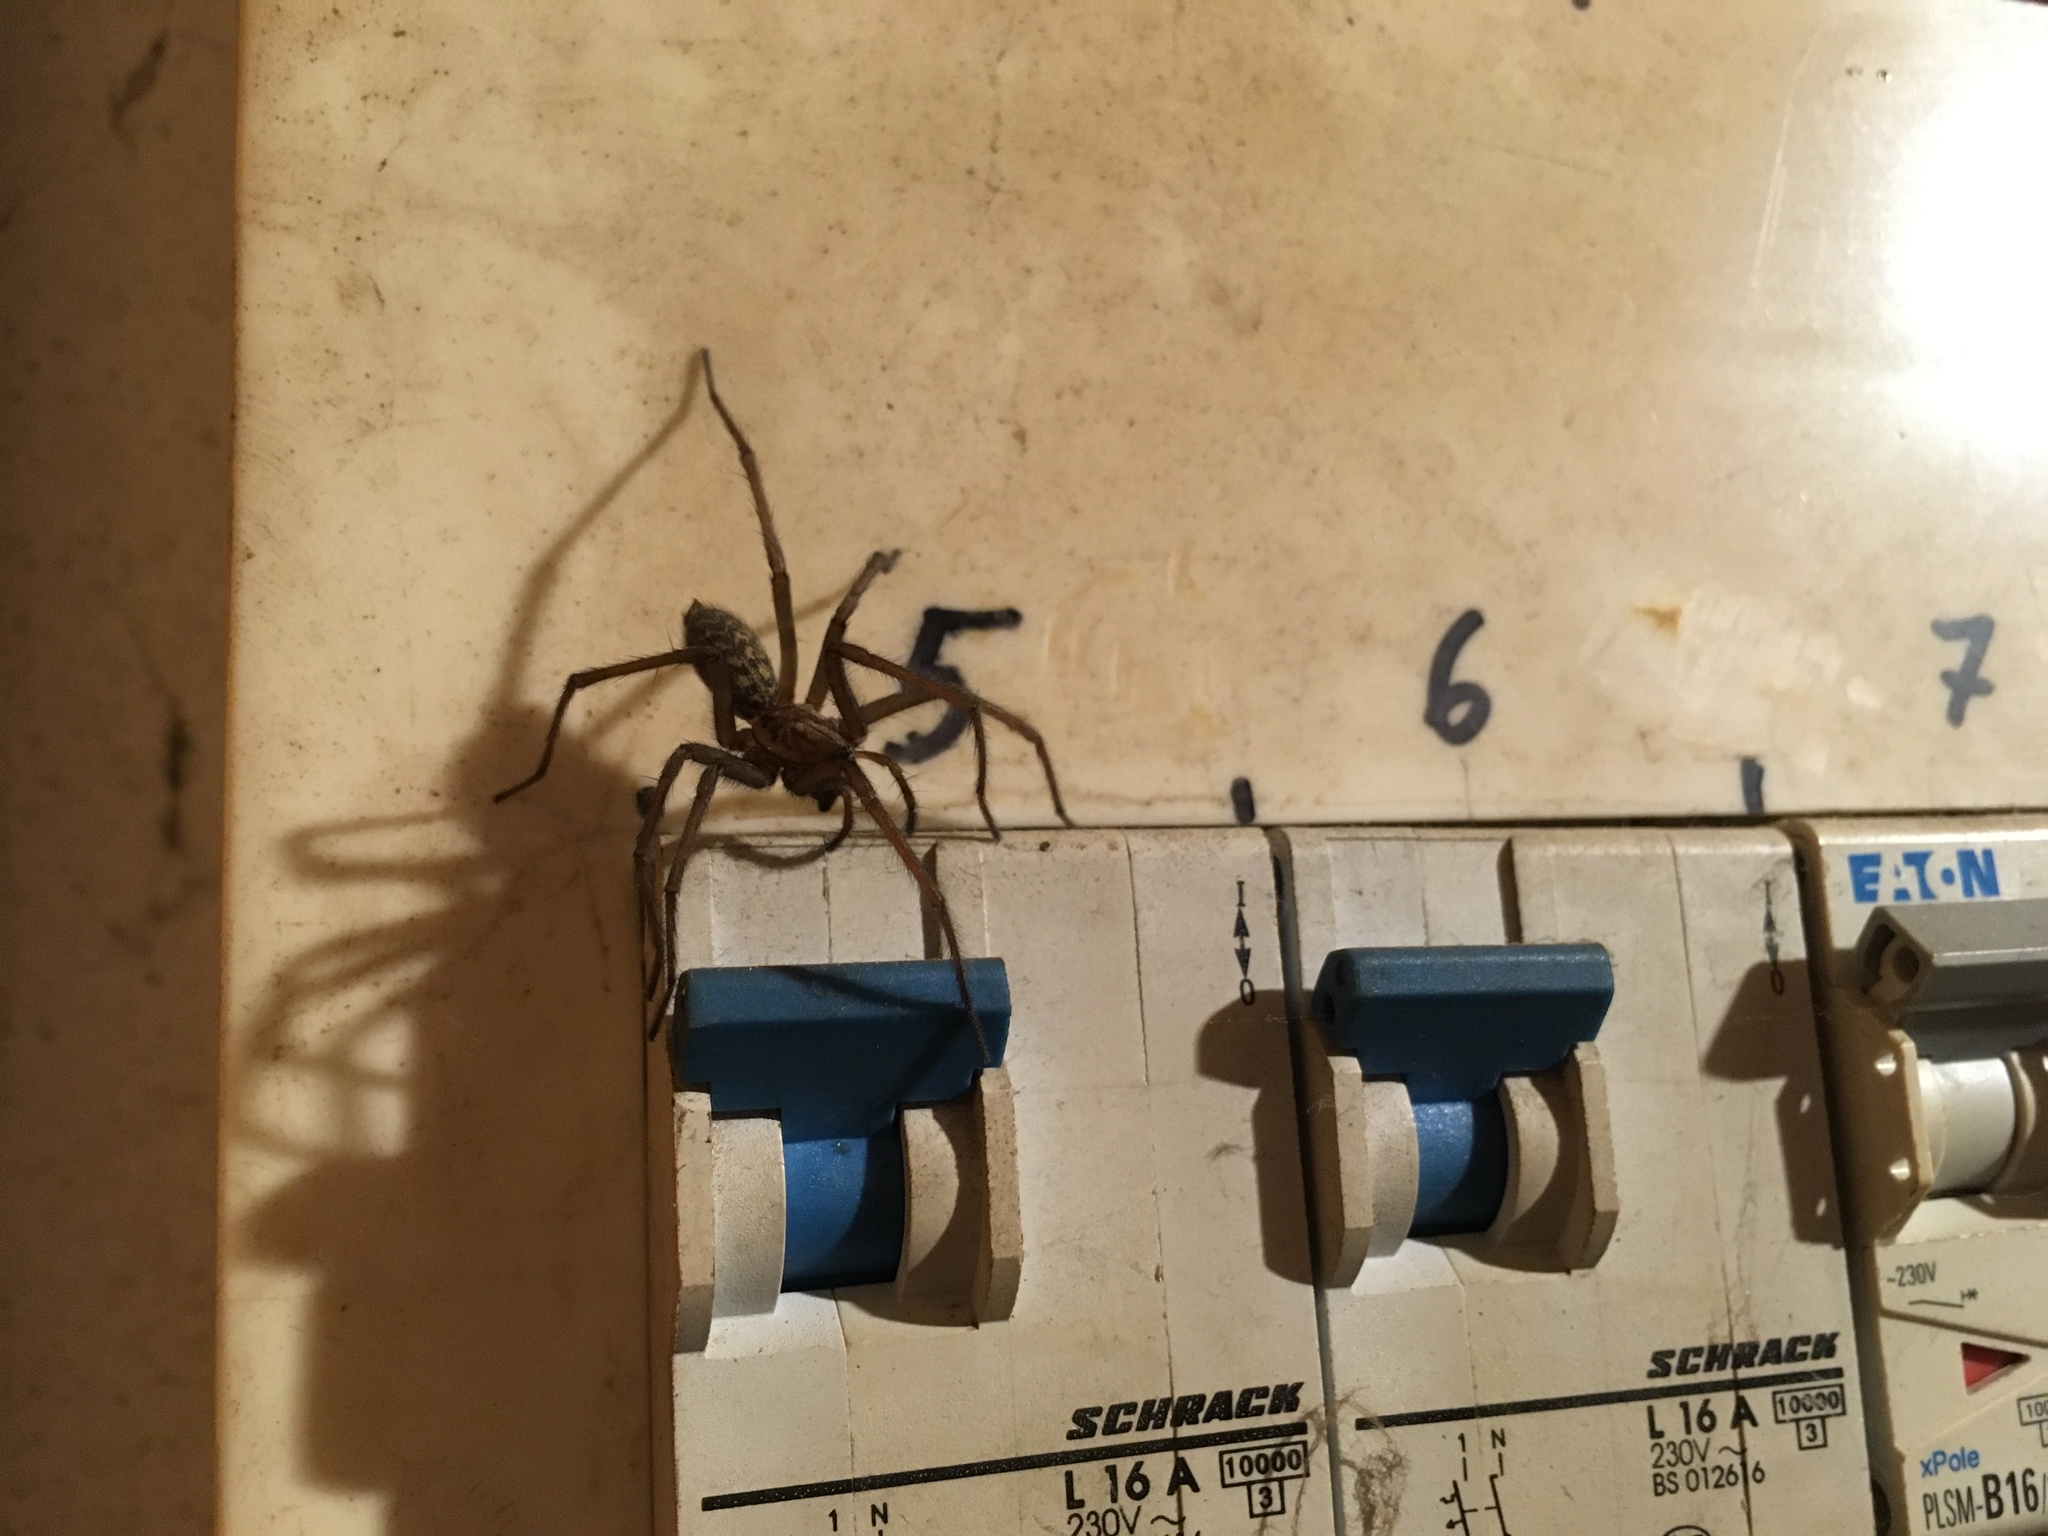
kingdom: Animalia
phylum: Arthropoda
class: Arachnida
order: Araneae
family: Agelenidae
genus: Eratigena
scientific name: Eratigena atrica
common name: Giant house spider
